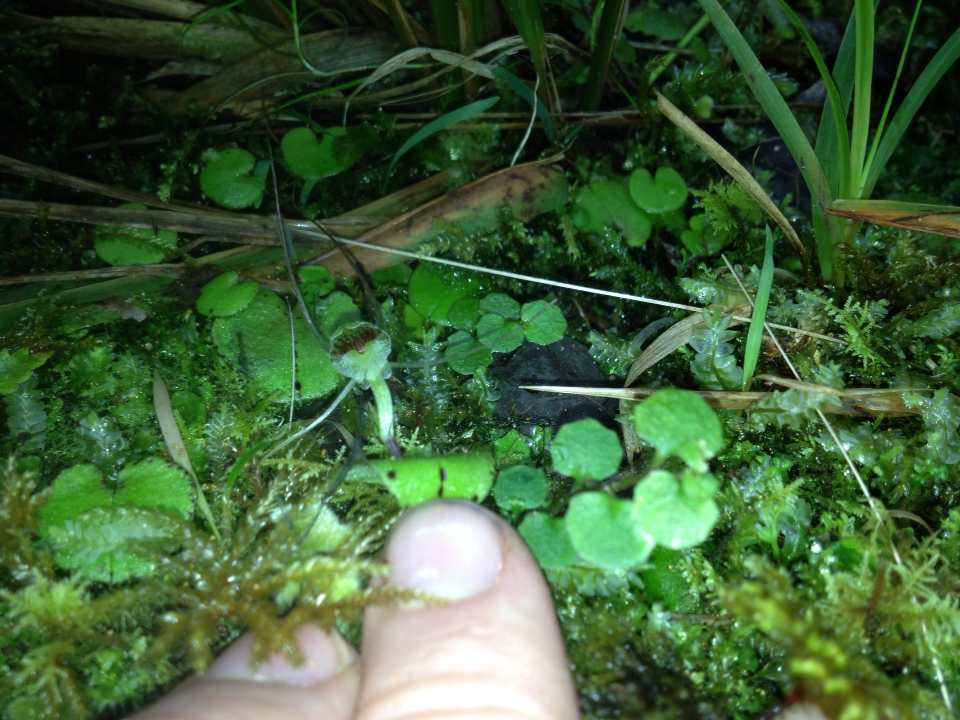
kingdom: Plantae
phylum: Tracheophyta
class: Liliopsida
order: Asparagales
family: Orchidaceae
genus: Corybas
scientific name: Corybas rivularis
